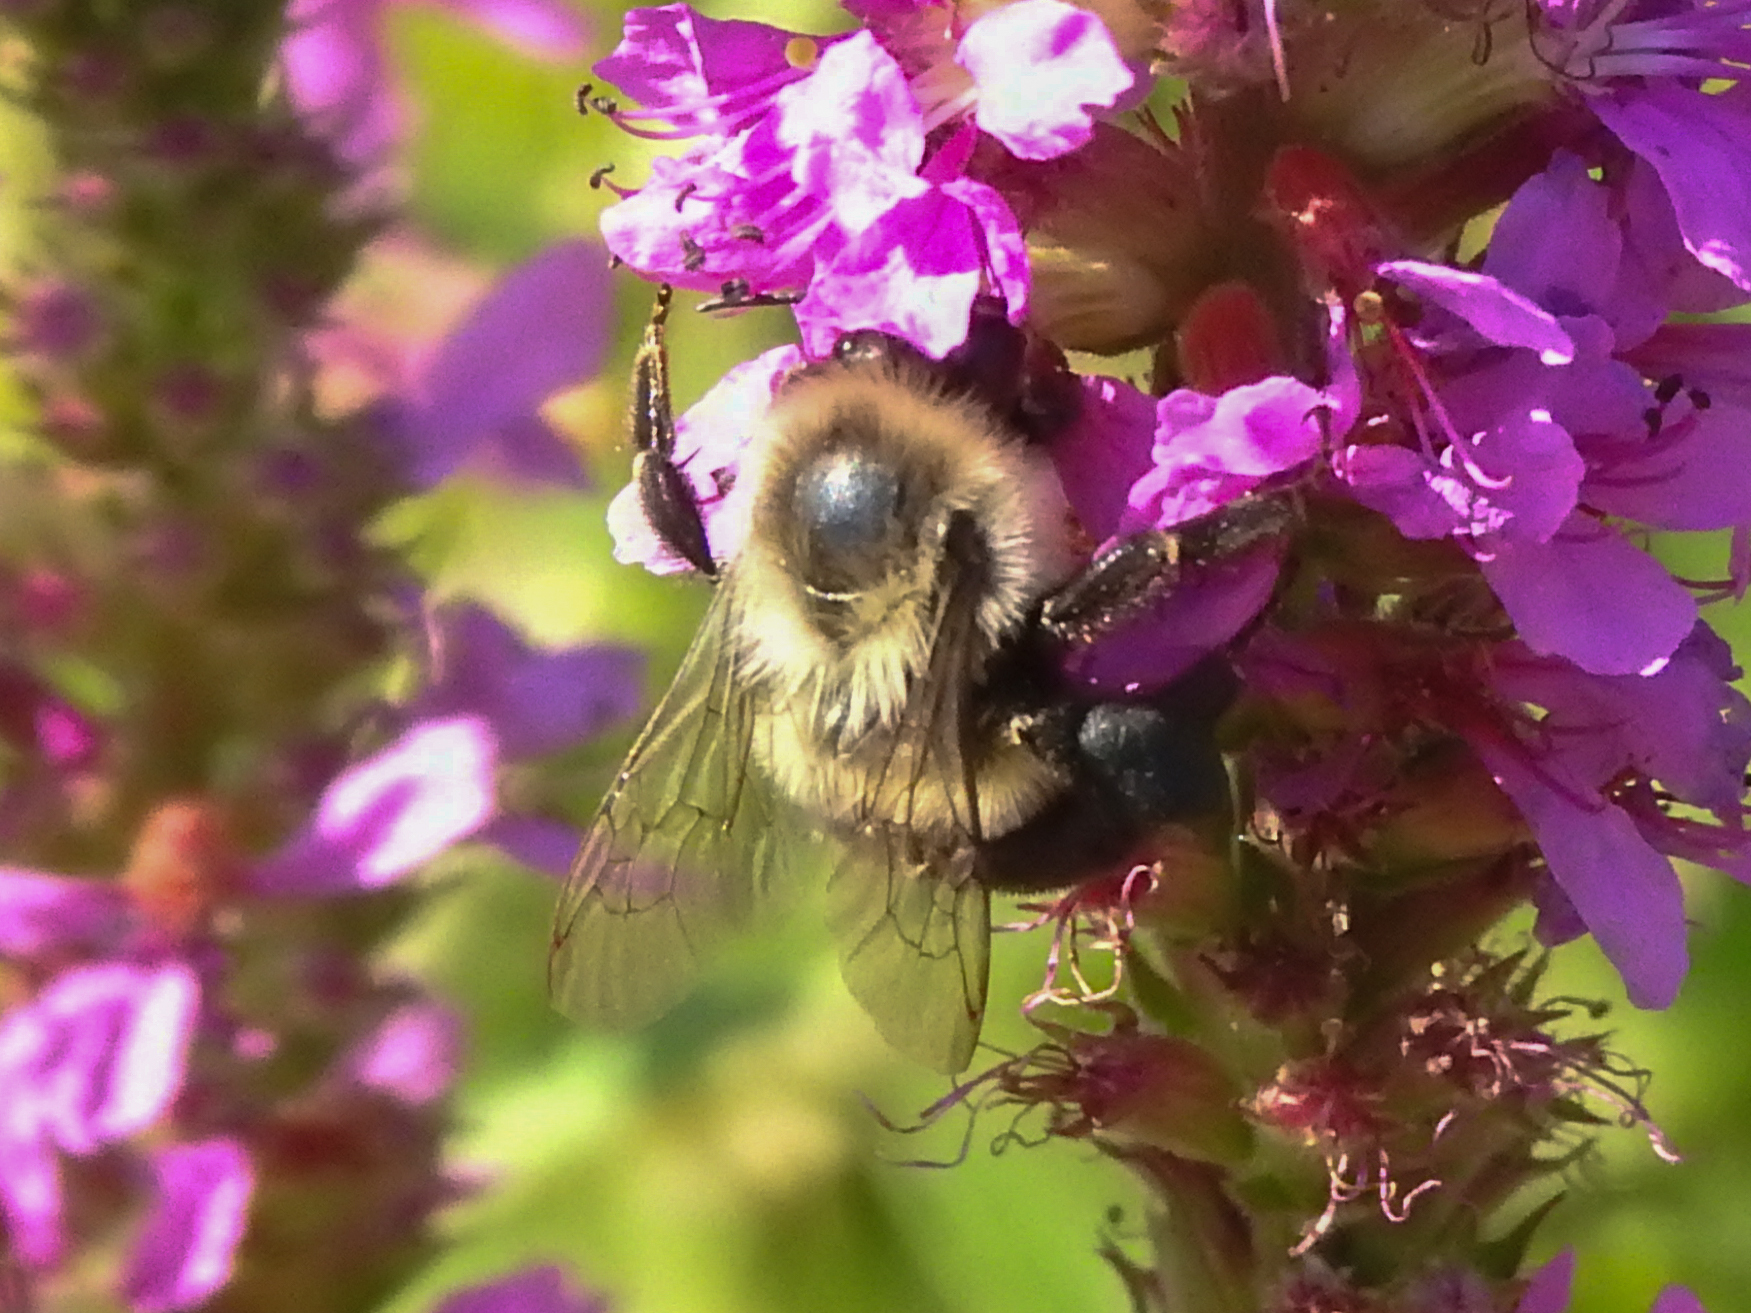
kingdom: Animalia
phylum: Arthropoda
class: Insecta
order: Hymenoptera
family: Apidae
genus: Bombus
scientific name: Bombus impatiens
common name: Common eastern bumble bee
